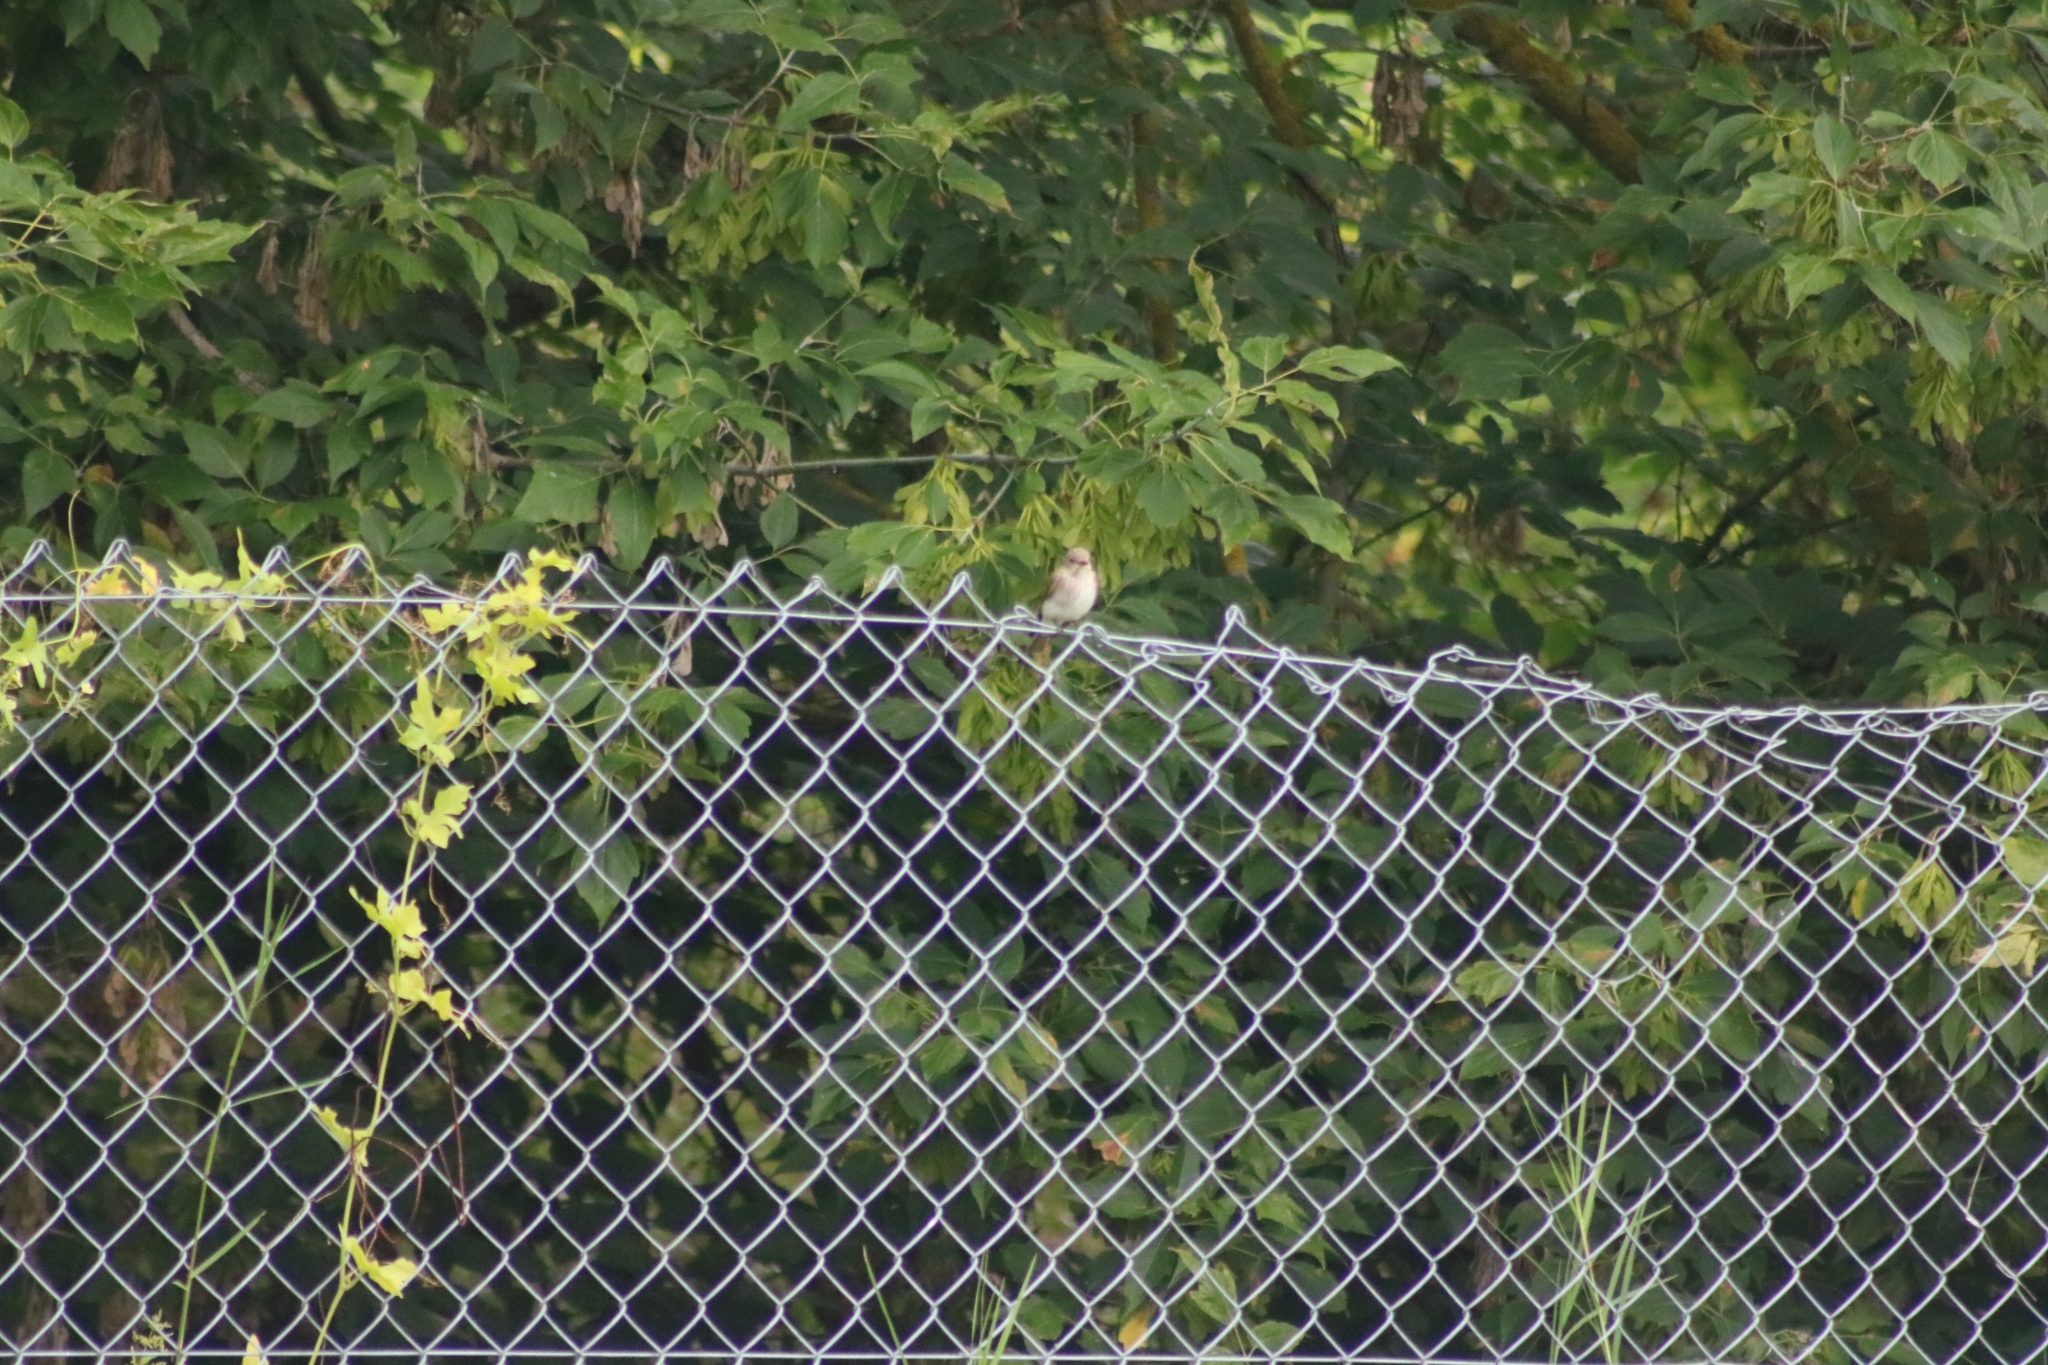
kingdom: Animalia
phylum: Chordata
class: Aves
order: Passeriformes
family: Muscicapidae
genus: Muscicapa
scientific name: Muscicapa striata
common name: Spotted flycatcher
